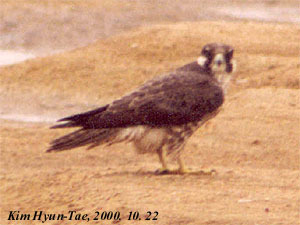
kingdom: Animalia
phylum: Chordata
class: Aves
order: Falconiformes
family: Falconidae
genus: Falco
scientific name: Falco subbuteo
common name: Eurasian hobby
